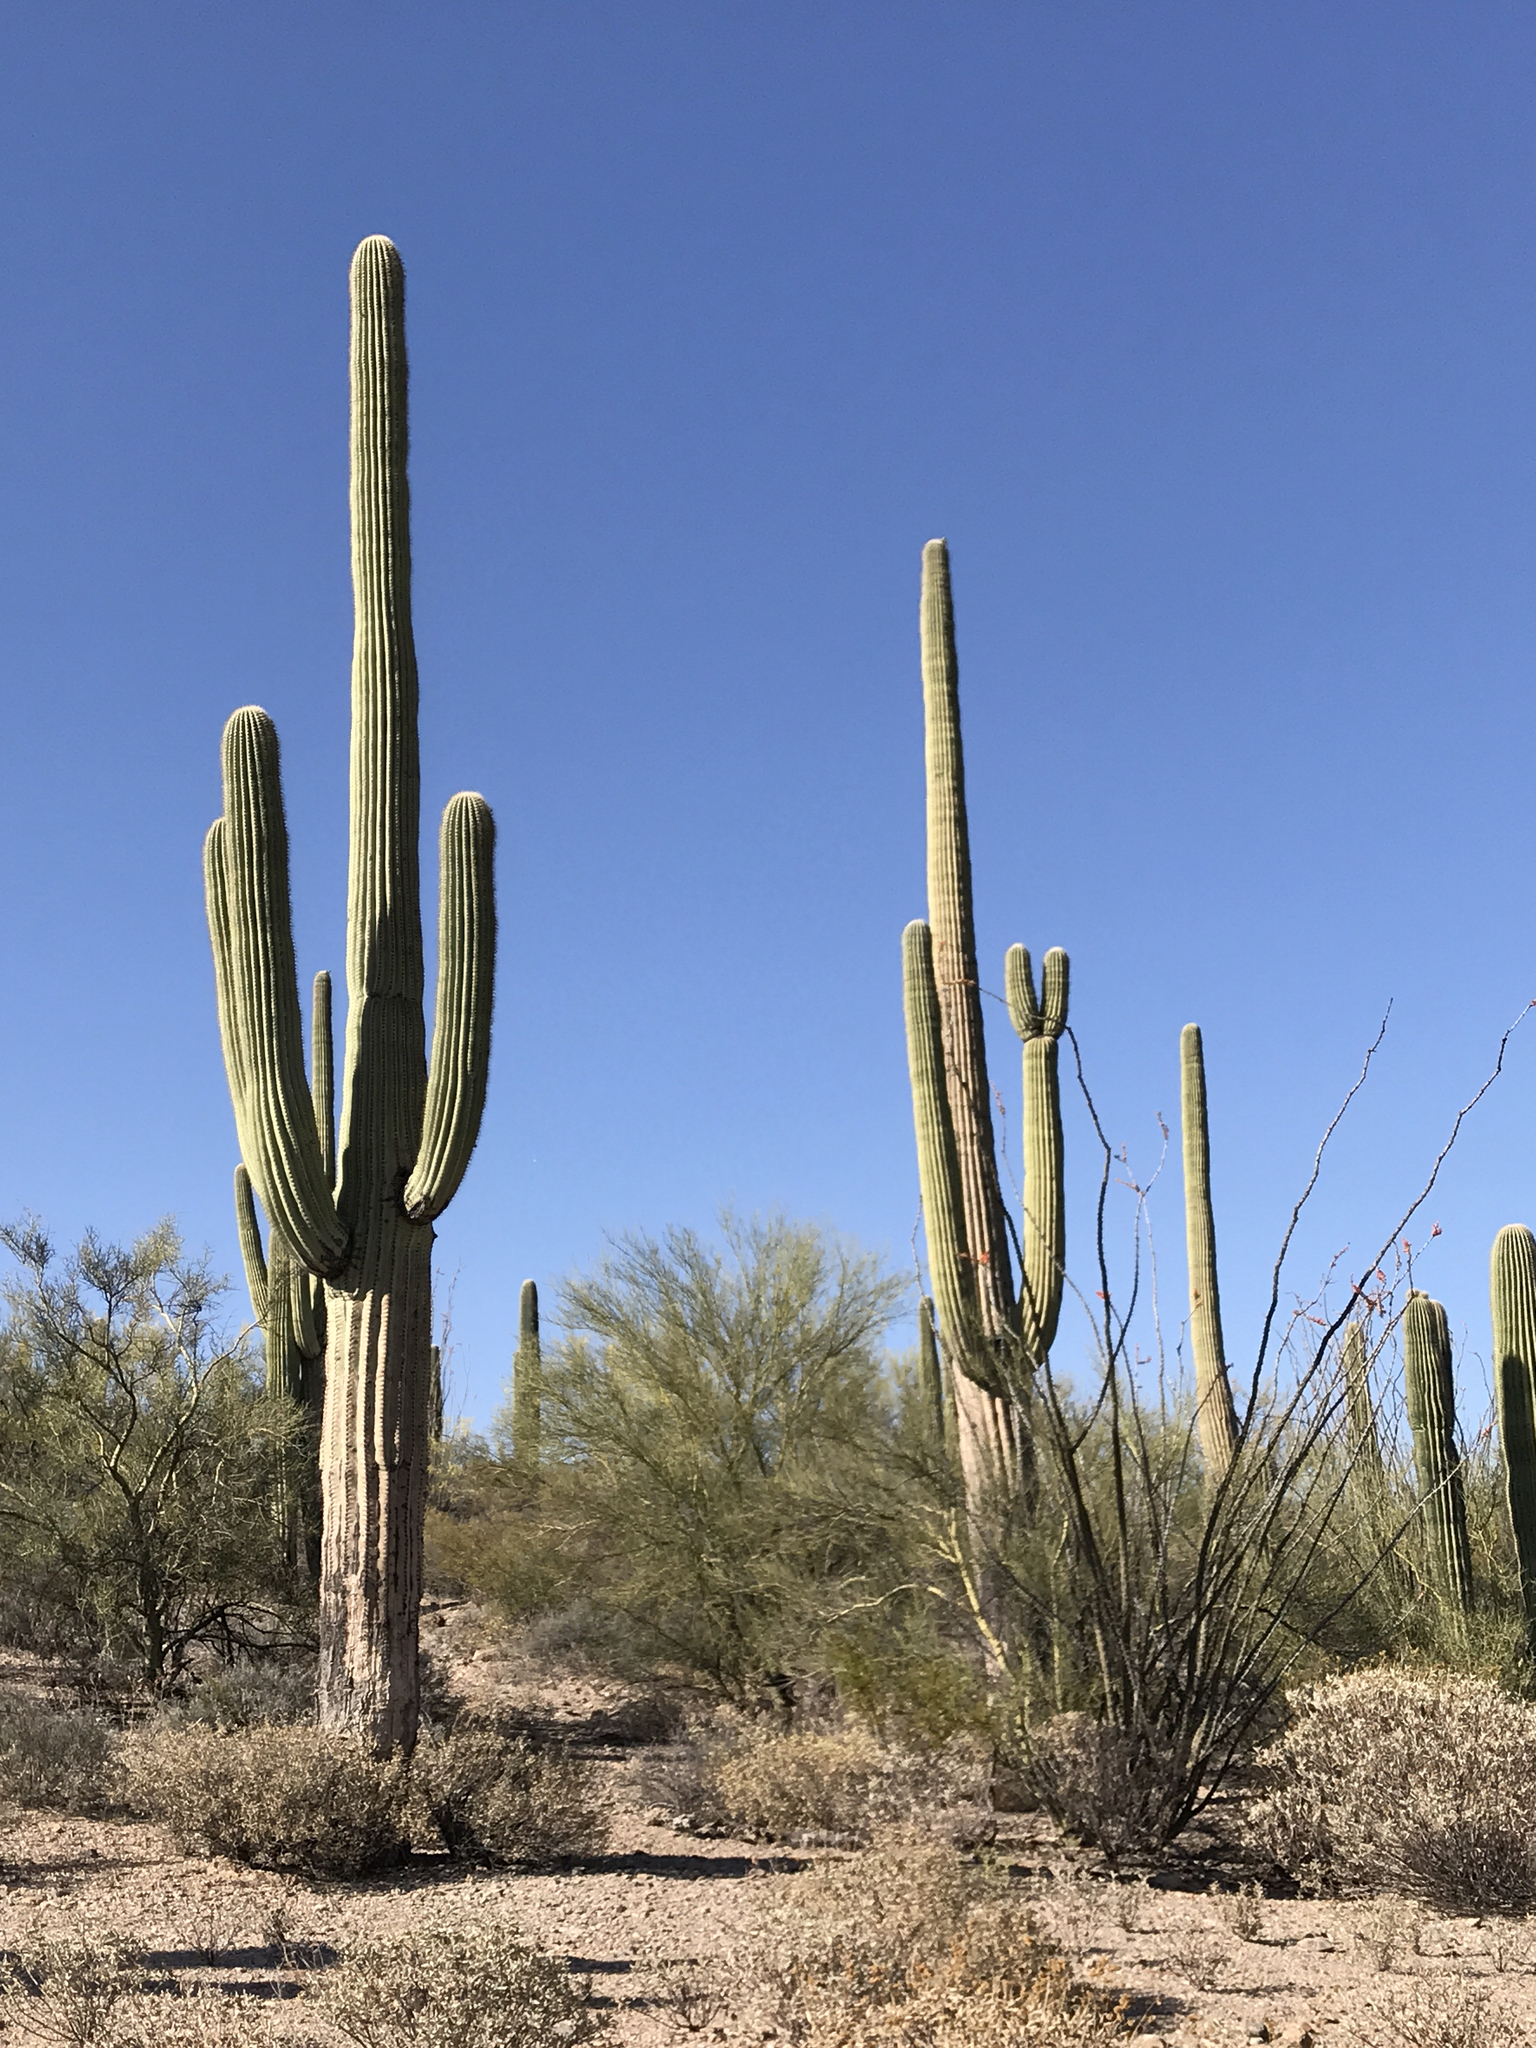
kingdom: Plantae
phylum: Tracheophyta
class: Magnoliopsida
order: Caryophyllales
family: Cactaceae
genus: Carnegiea
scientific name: Carnegiea gigantea
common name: Saguaro
